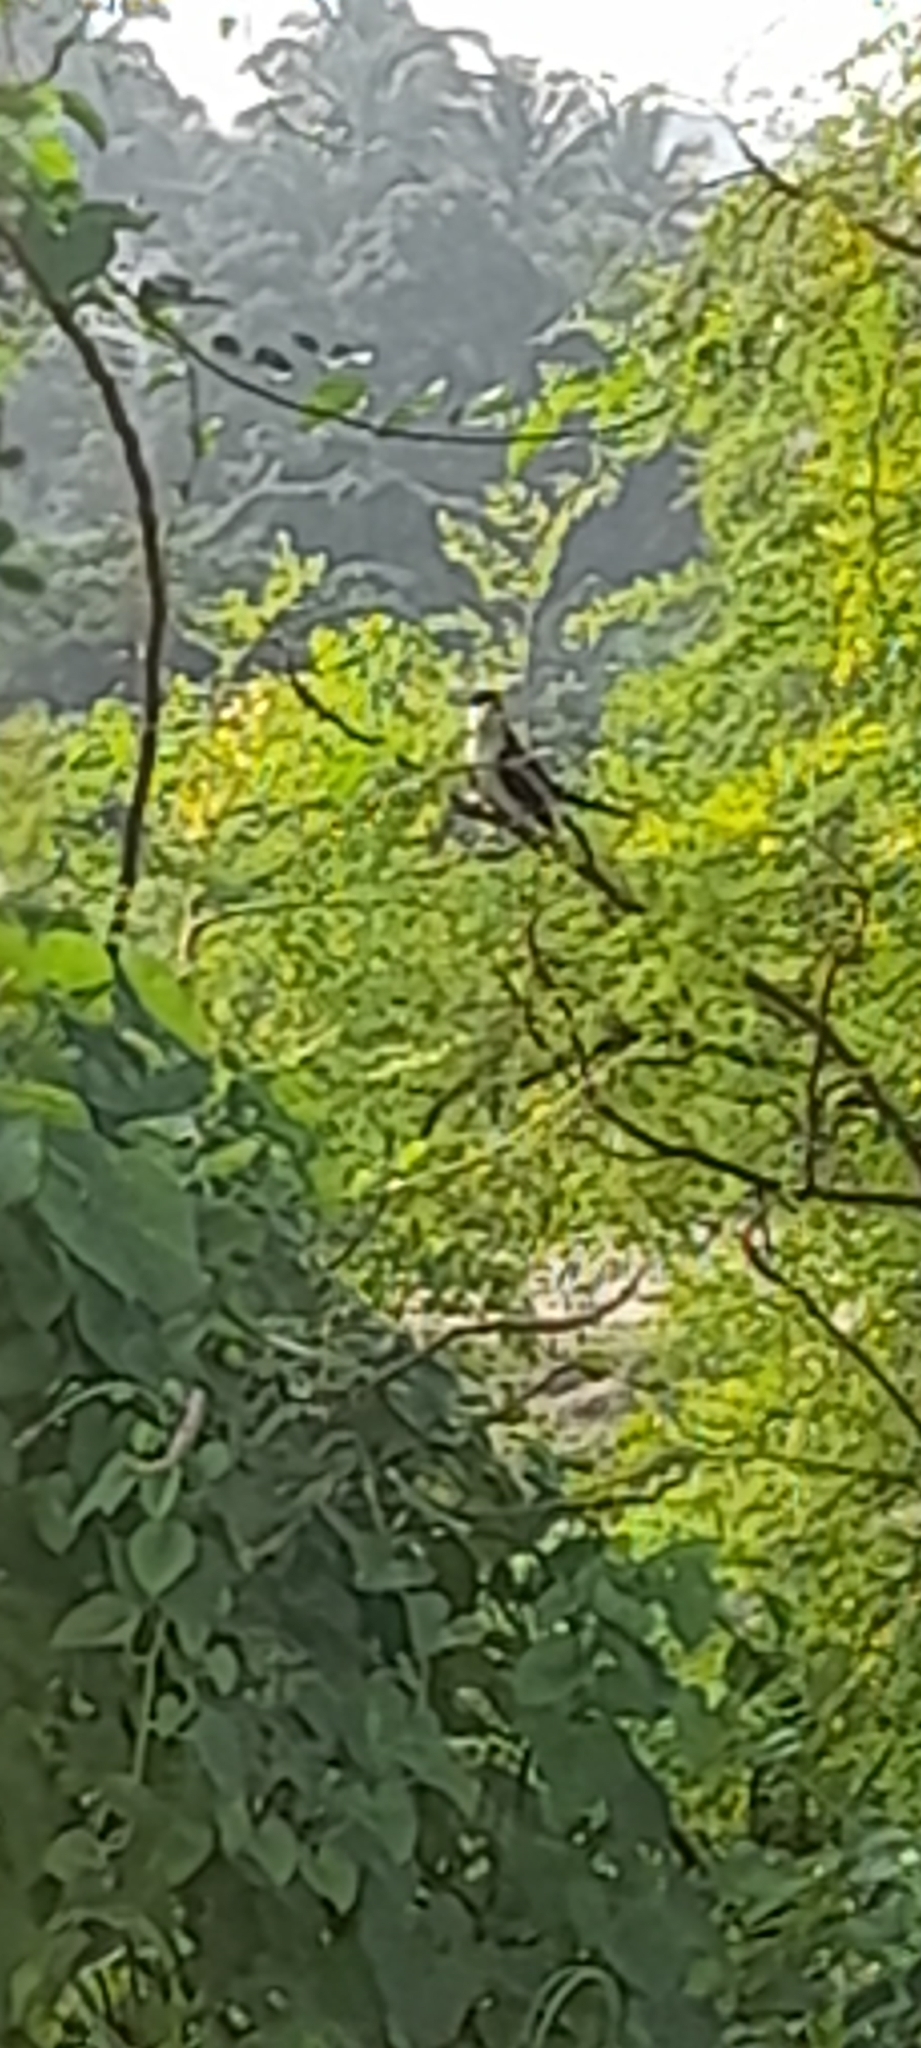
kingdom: Animalia
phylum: Chordata
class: Aves
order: Cuculiformes
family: Cuculidae
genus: Clamator
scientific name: Clamator jacobinus
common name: Jacobin cuckoo
